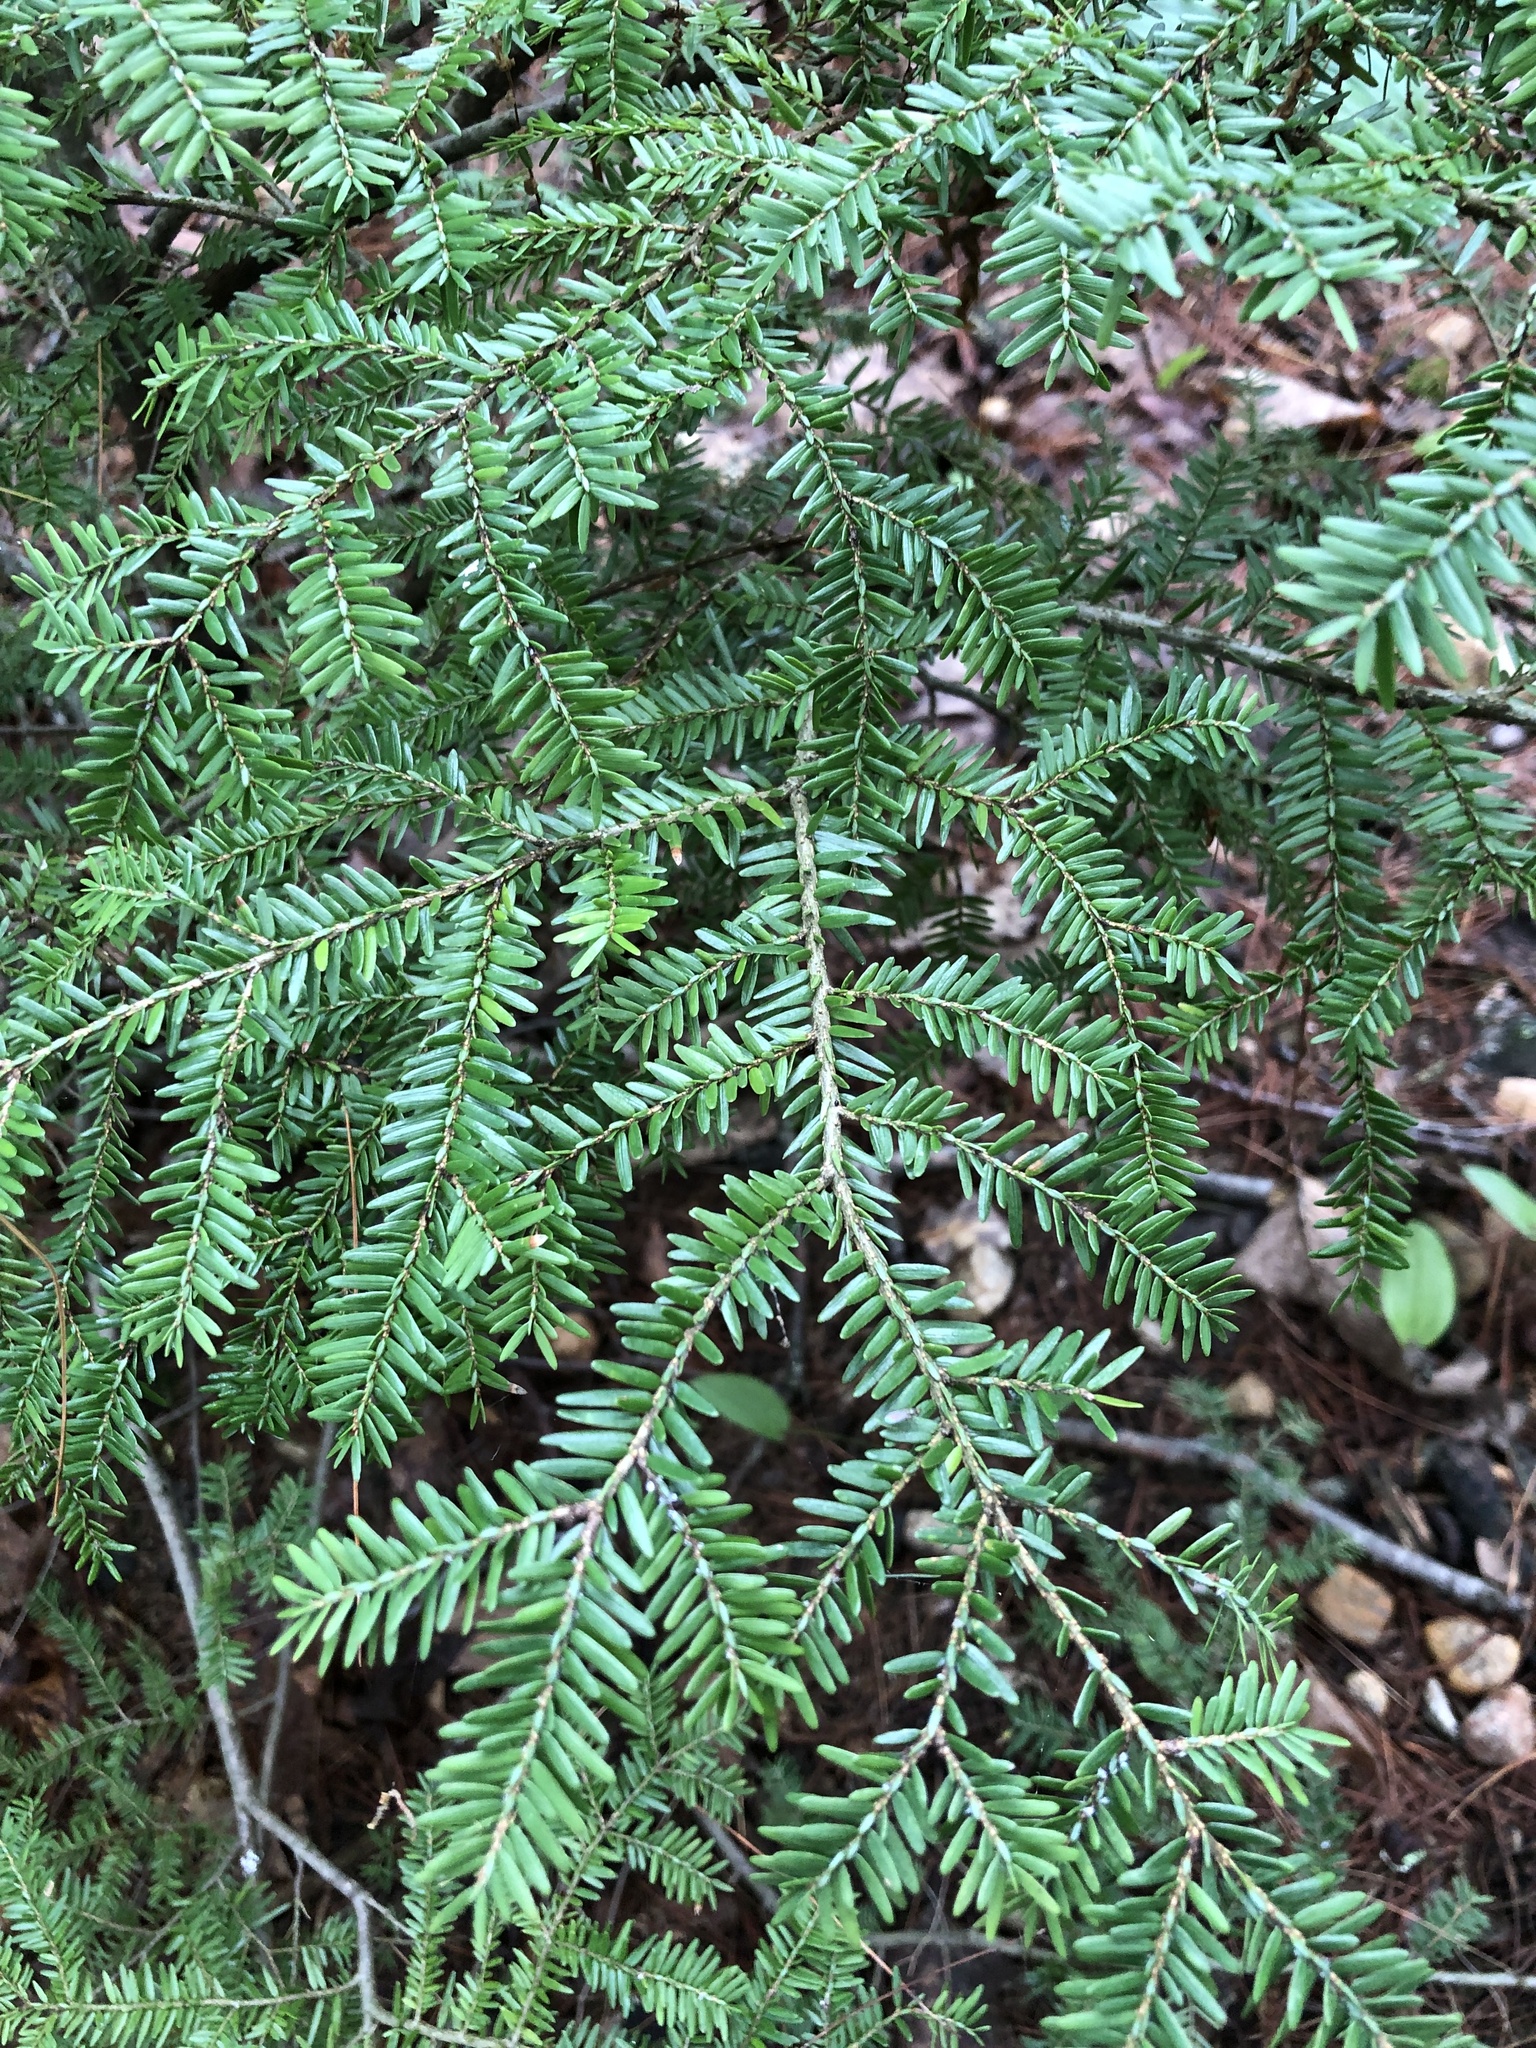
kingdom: Plantae
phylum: Tracheophyta
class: Pinopsida
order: Pinales
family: Pinaceae
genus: Tsuga
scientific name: Tsuga canadensis
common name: Eastern hemlock
